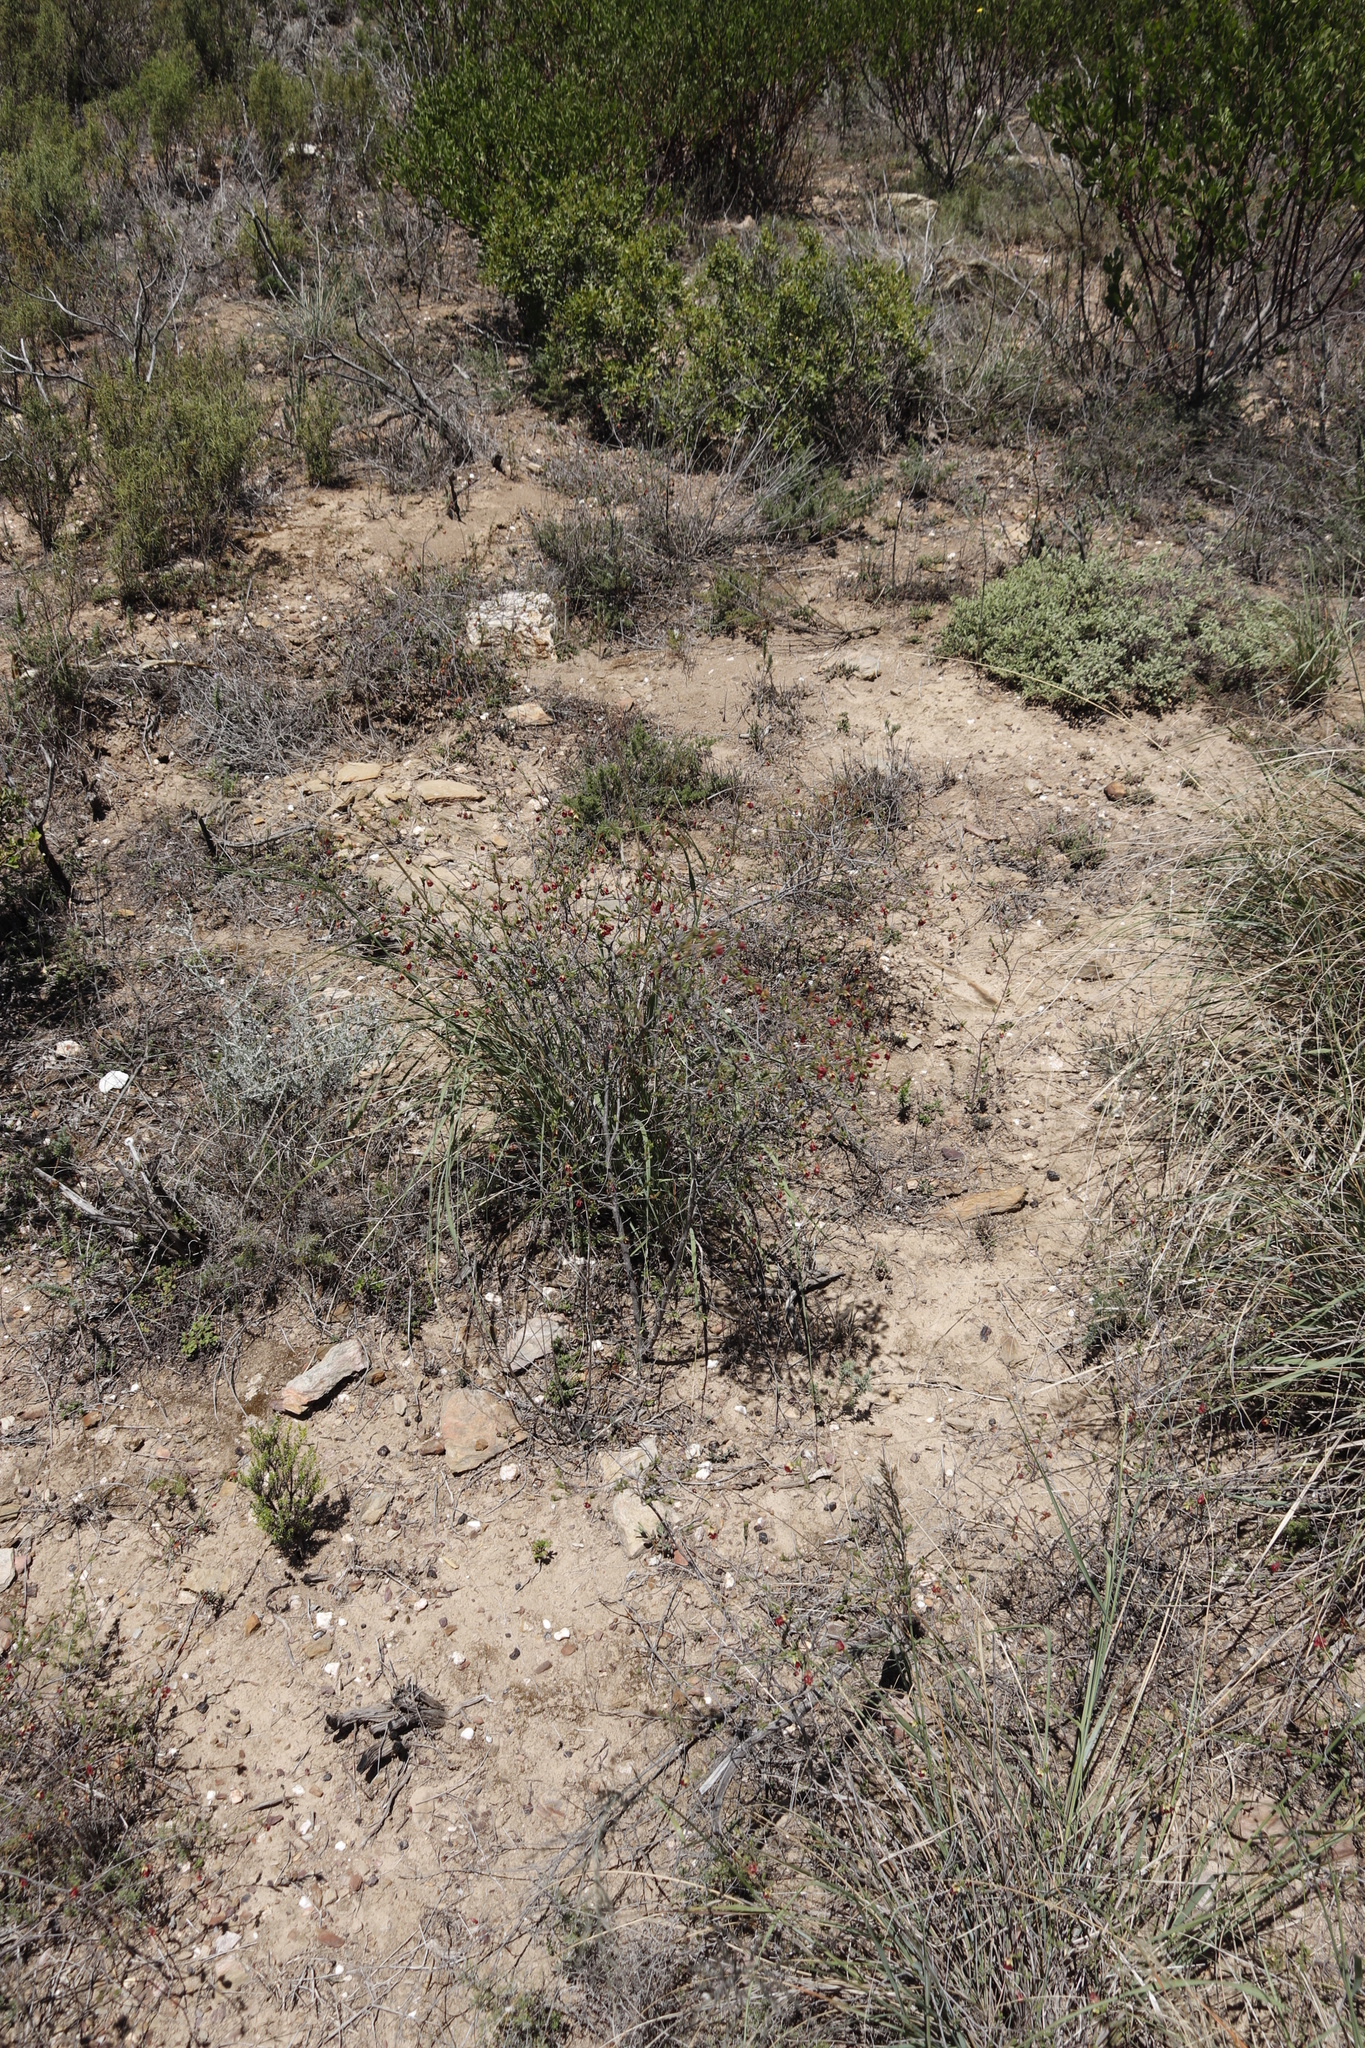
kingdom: Plantae
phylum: Tracheophyta
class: Magnoliopsida
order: Malvales
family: Malvaceae
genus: Hermannia
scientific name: Hermannia flammula
